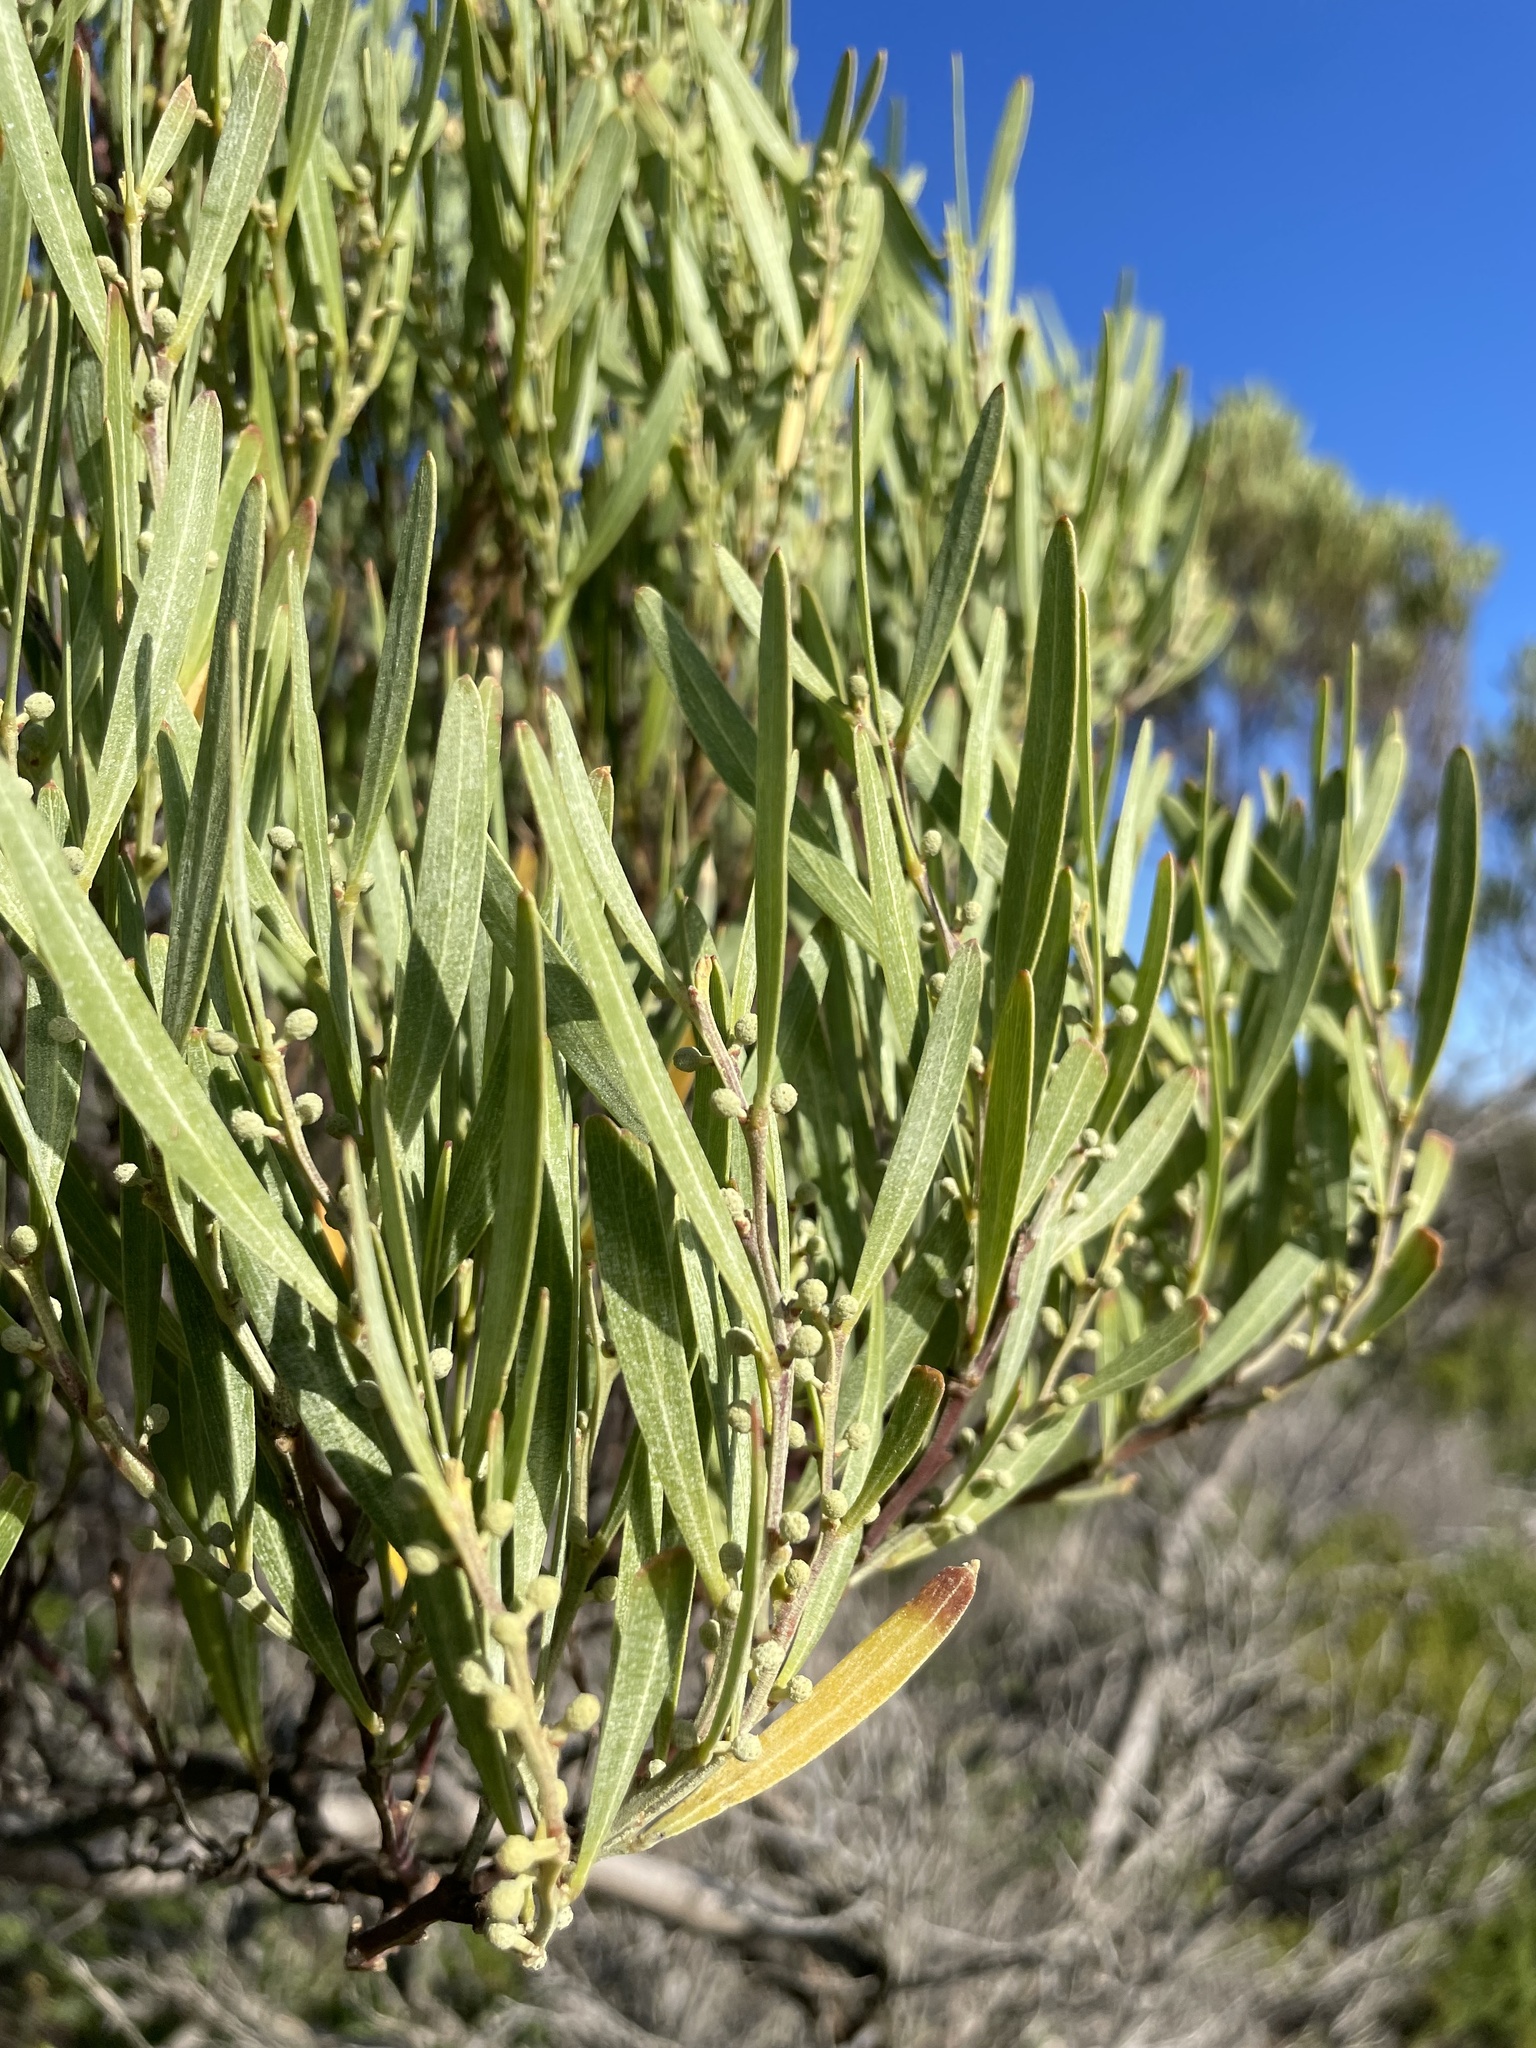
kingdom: Plantae
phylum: Tracheophyta
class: Magnoliopsida
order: Fabales
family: Fabaceae
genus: Acacia
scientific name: Acacia stricta
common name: Hop wattle
